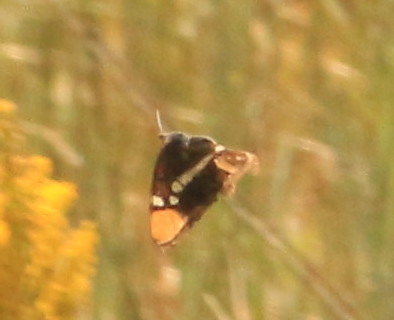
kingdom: Animalia
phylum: Arthropoda
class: Insecta
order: Lepidoptera
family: Nymphalidae
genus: Limenitis
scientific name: Limenitis bredowii
